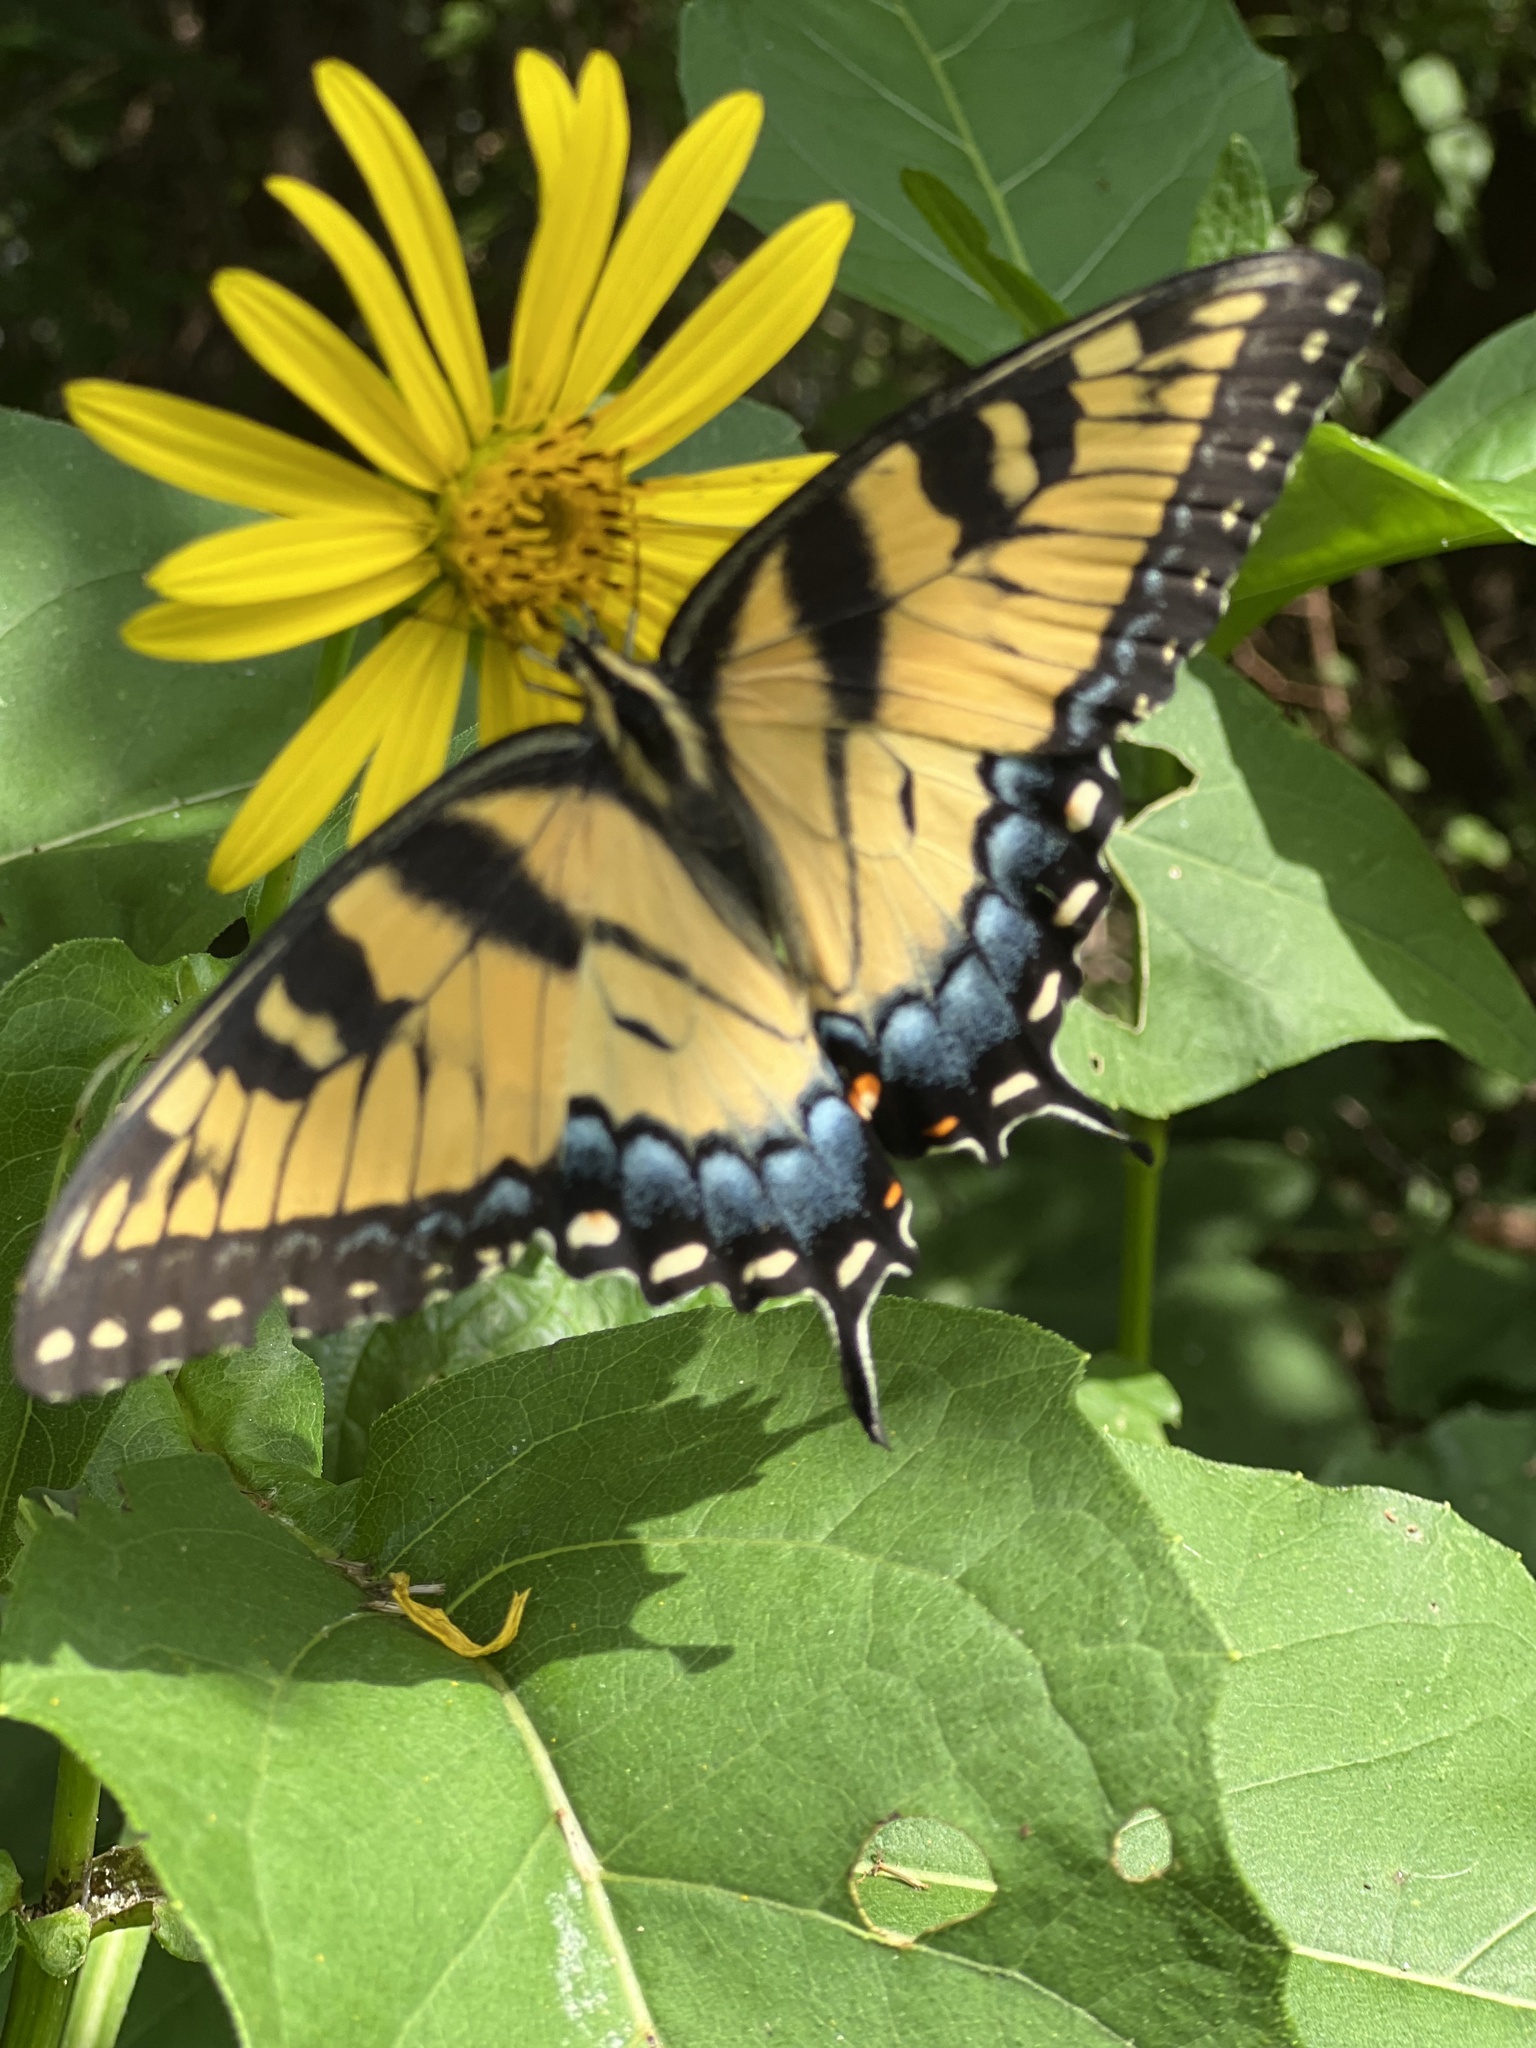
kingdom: Animalia
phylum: Arthropoda
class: Insecta
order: Lepidoptera
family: Papilionidae
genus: Papilio
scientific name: Papilio glaucus
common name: Tiger swallowtail
